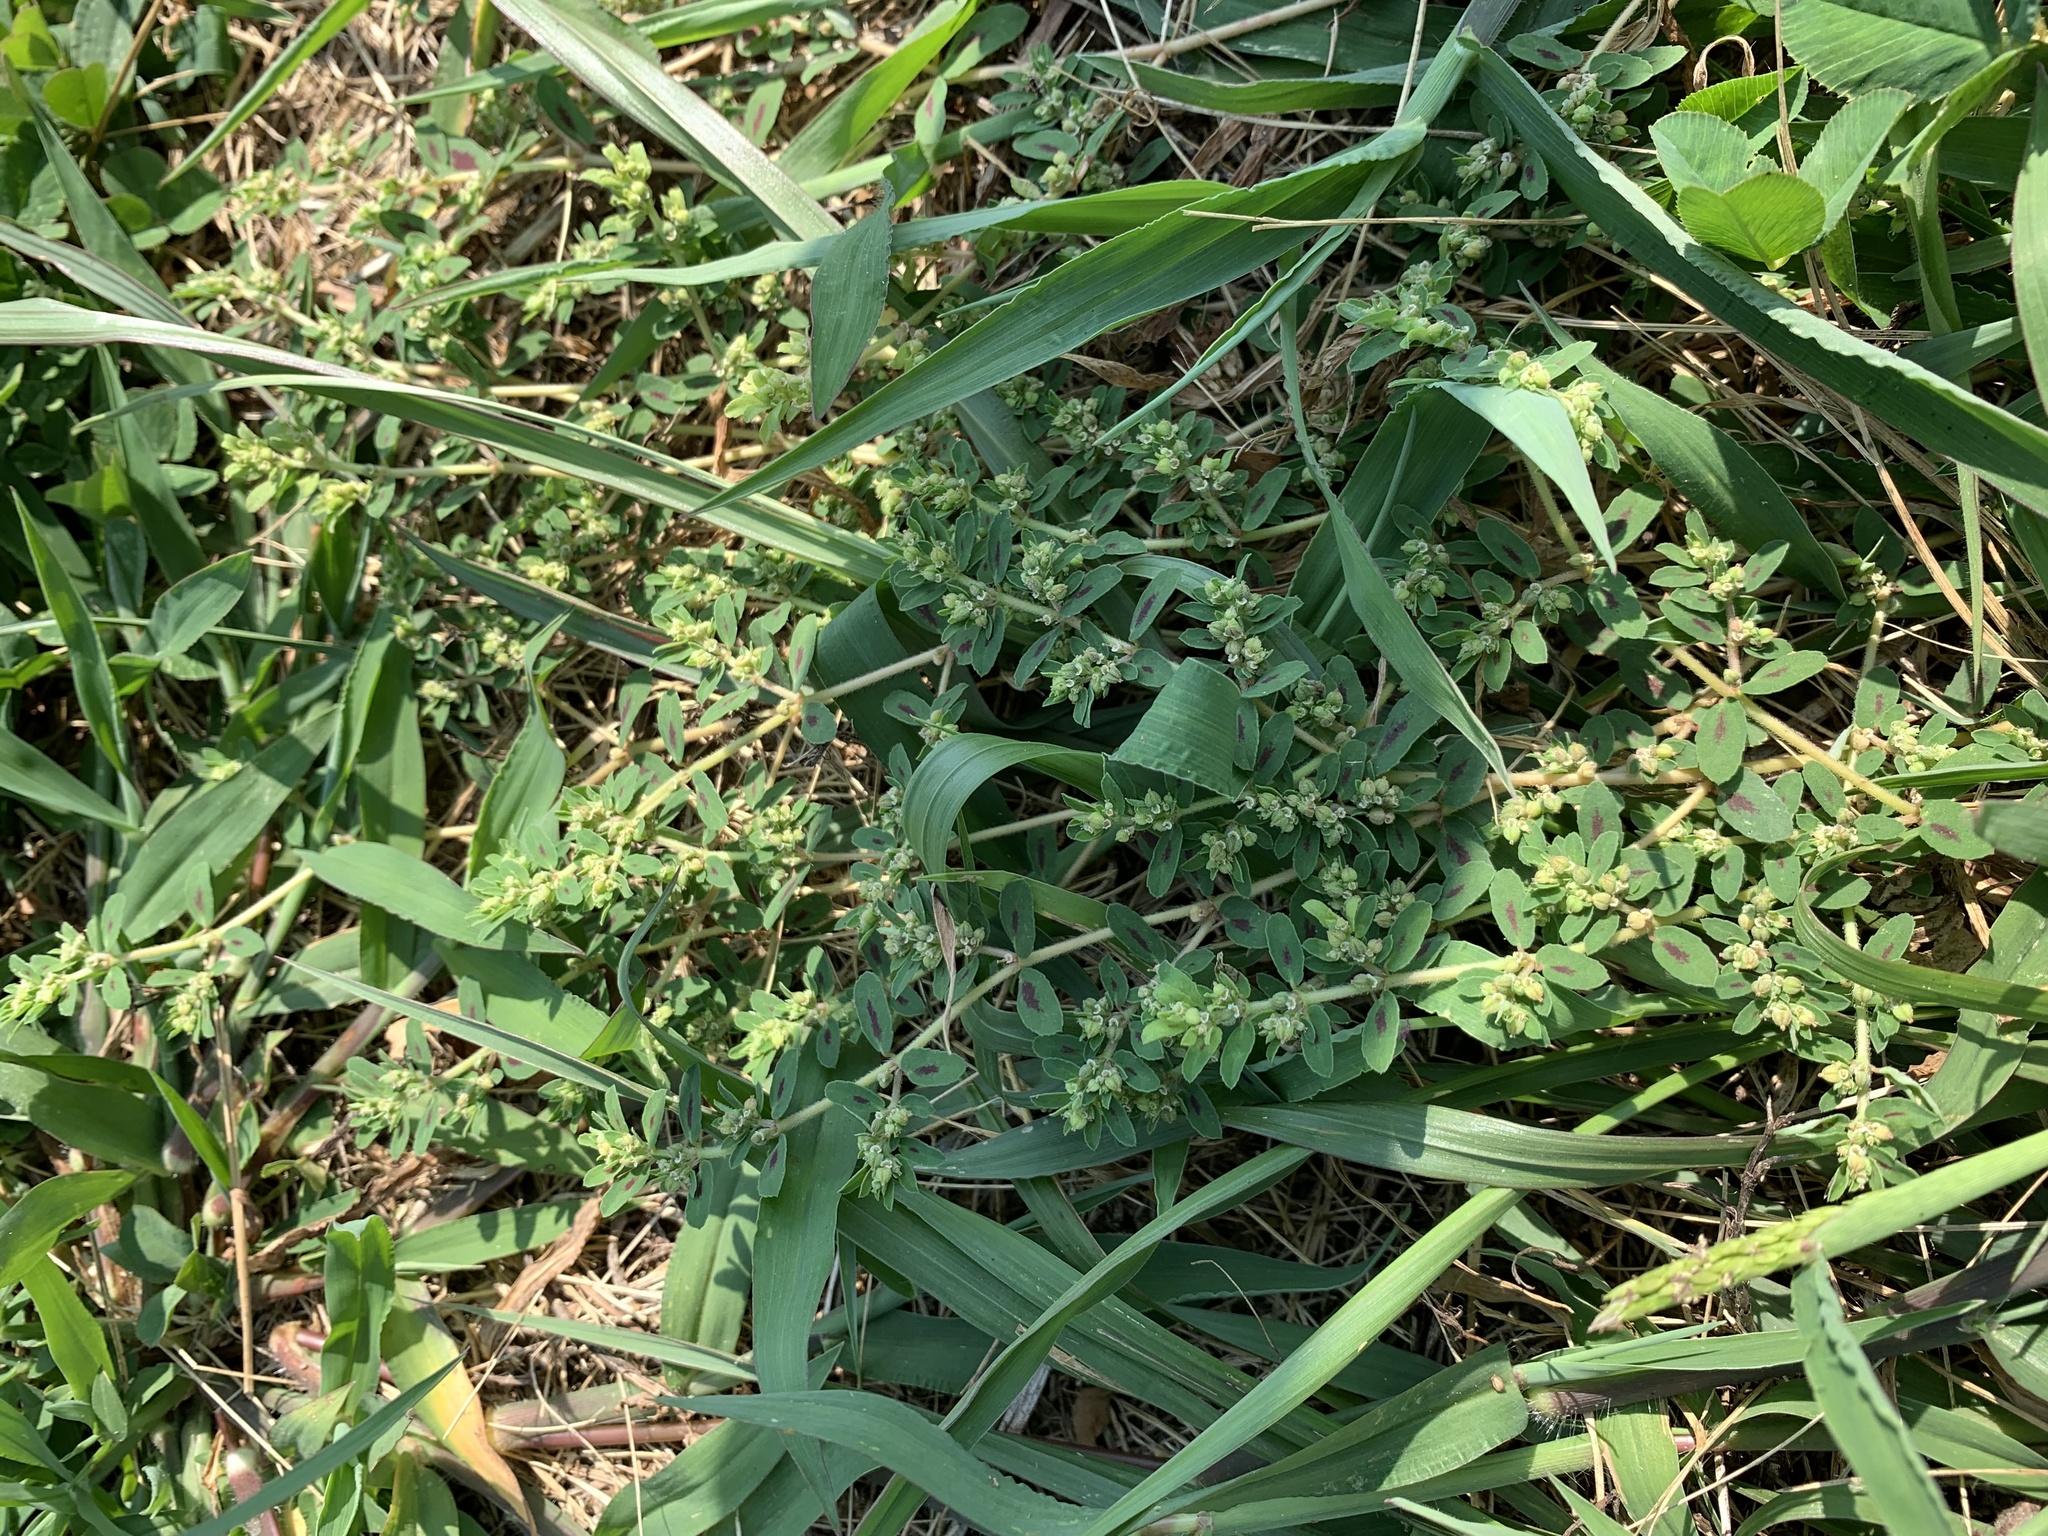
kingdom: Plantae
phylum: Tracheophyta
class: Magnoliopsida
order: Malpighiales
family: Euphorbiaceae
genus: Euphorbia
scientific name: Euphorbia maculata
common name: Spotted spurge
